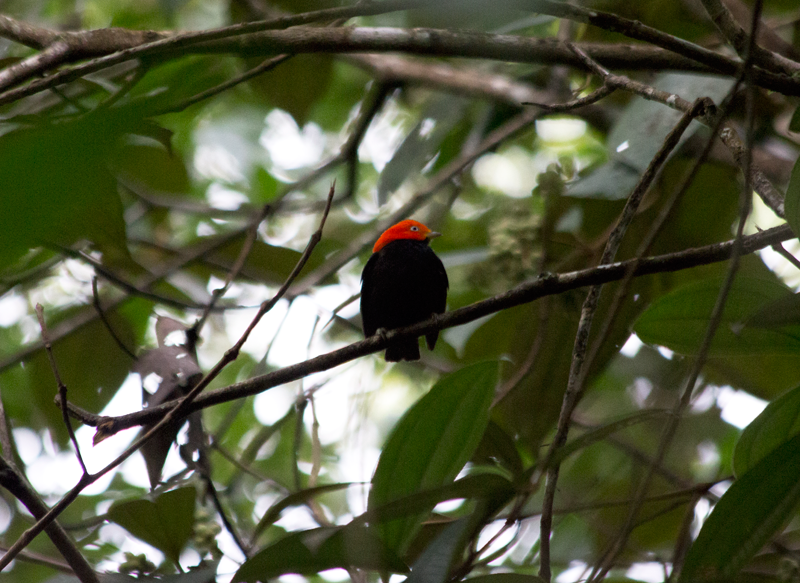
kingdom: Animalia
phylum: Chordata
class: Aves
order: Passeriformes
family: Pipridae
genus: Pipra
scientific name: Pipra mentalis
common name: Red-capped manakin
